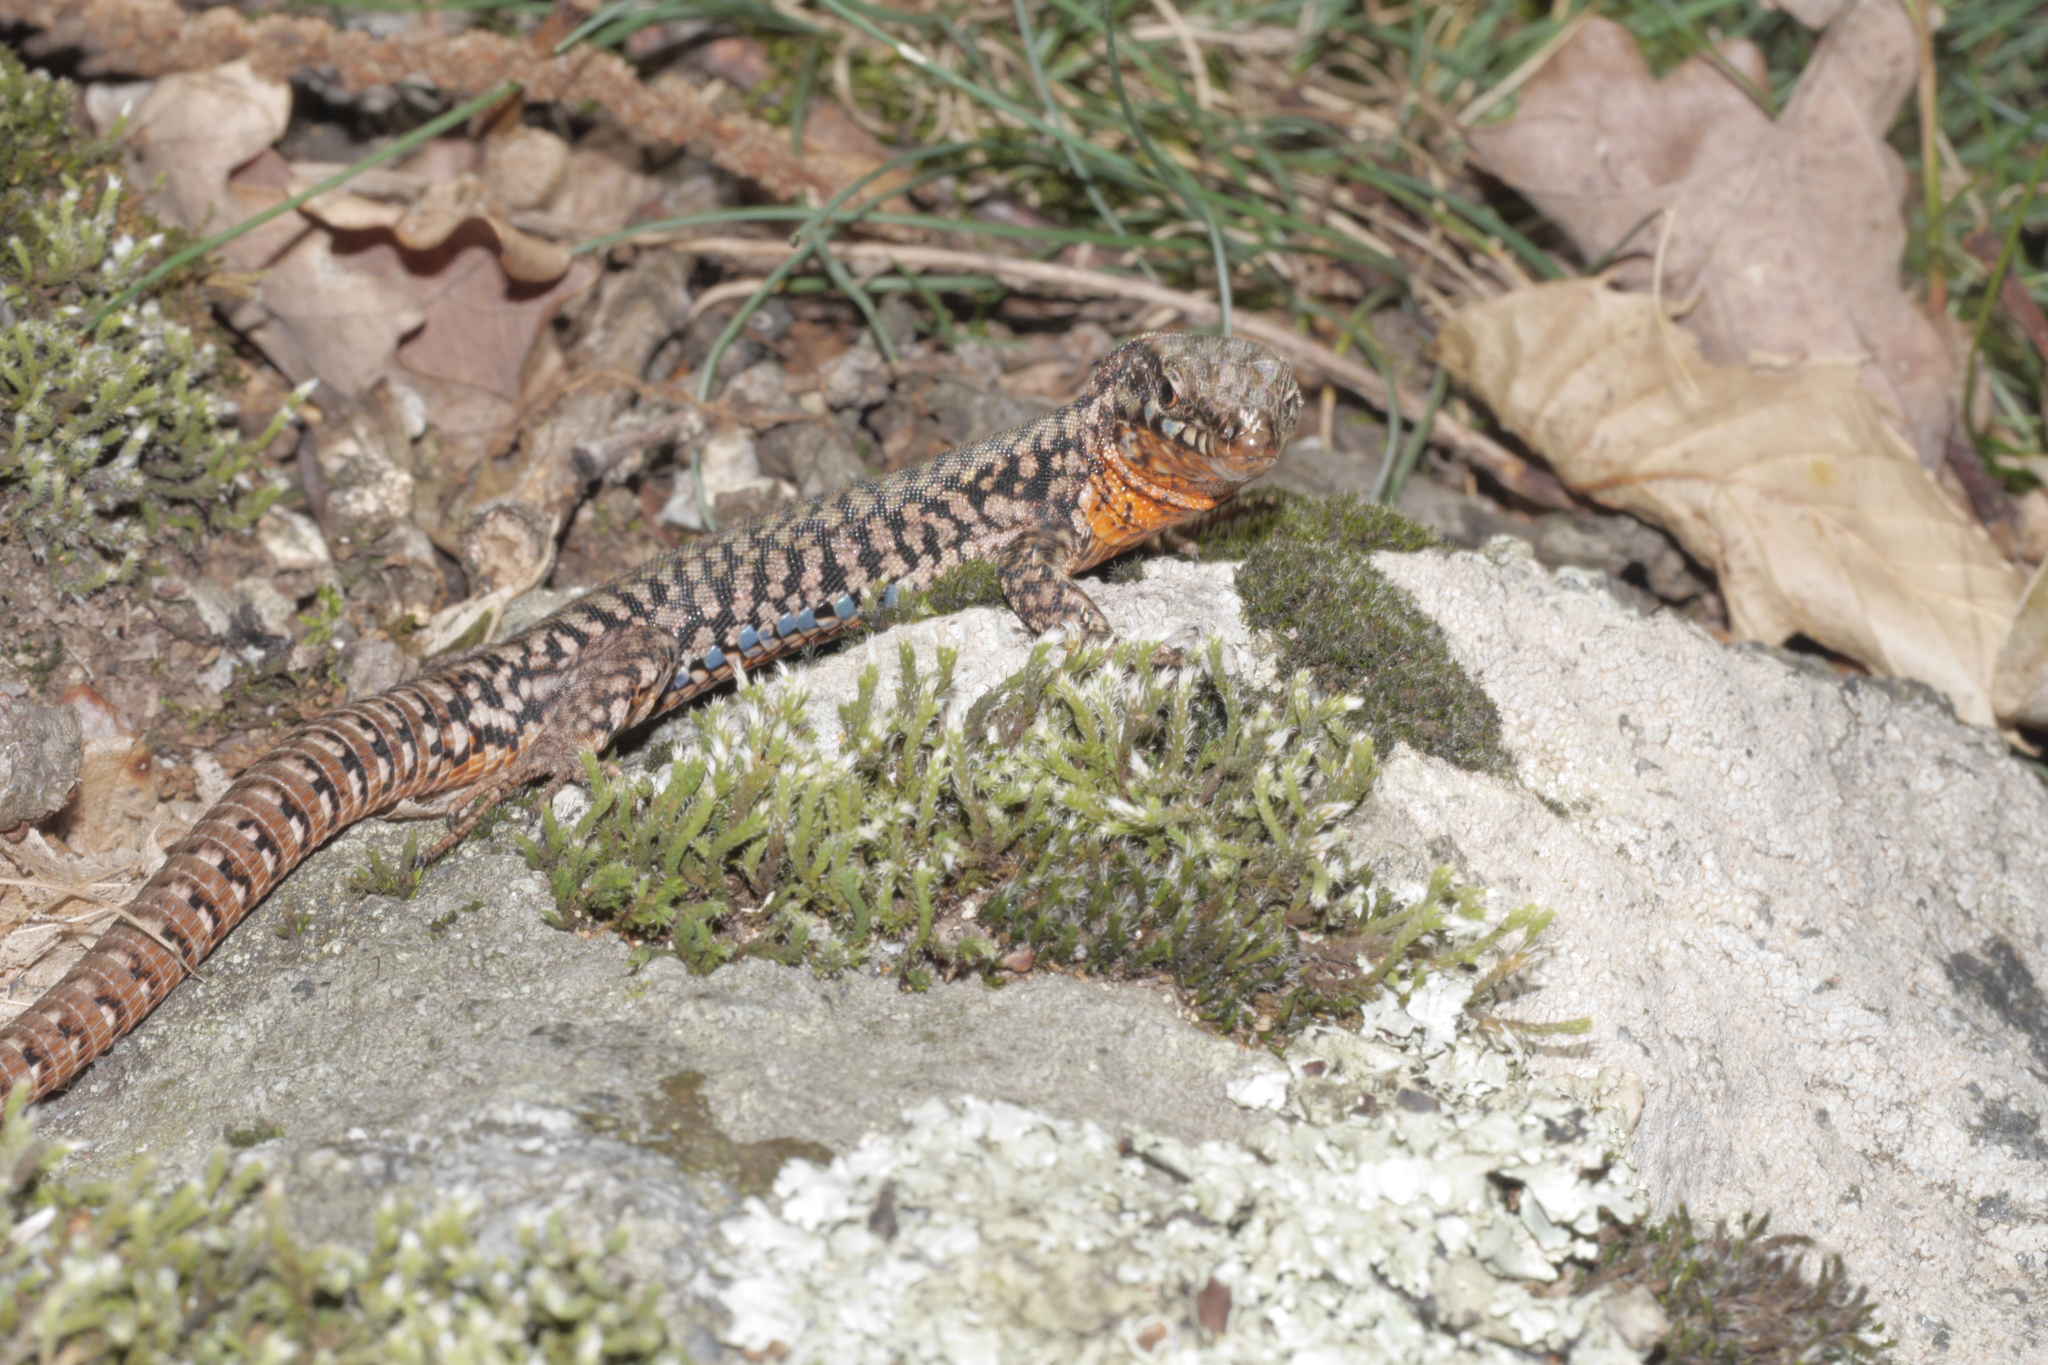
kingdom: Animalia
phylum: Chordata
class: Squamata
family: Lacertidae
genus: Podarcis
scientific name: Podarcis muralis
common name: Common wall lizard
